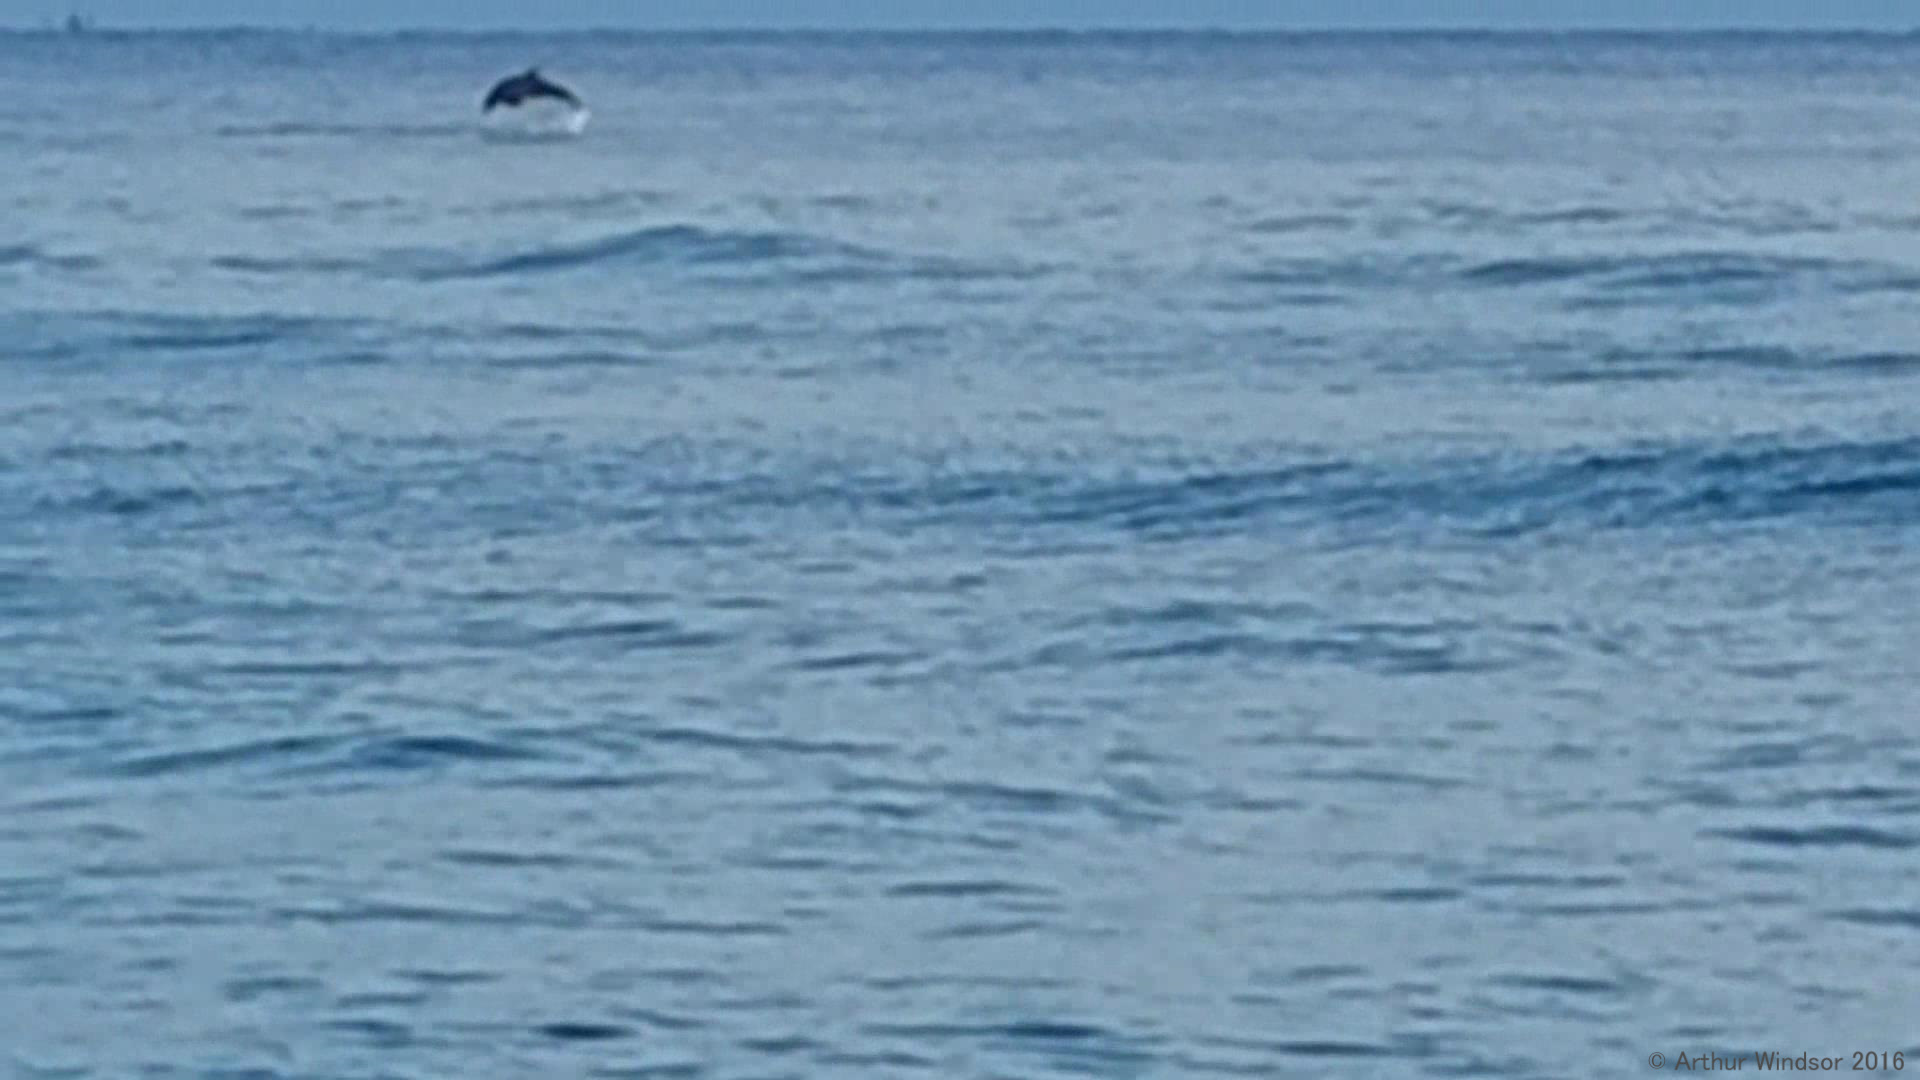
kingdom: Animalia
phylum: Chordata
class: Mammalia
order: Cetacea
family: Delphinidae
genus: Tursiops
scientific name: Tursiops truncatus
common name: Bottlenose dolphin
